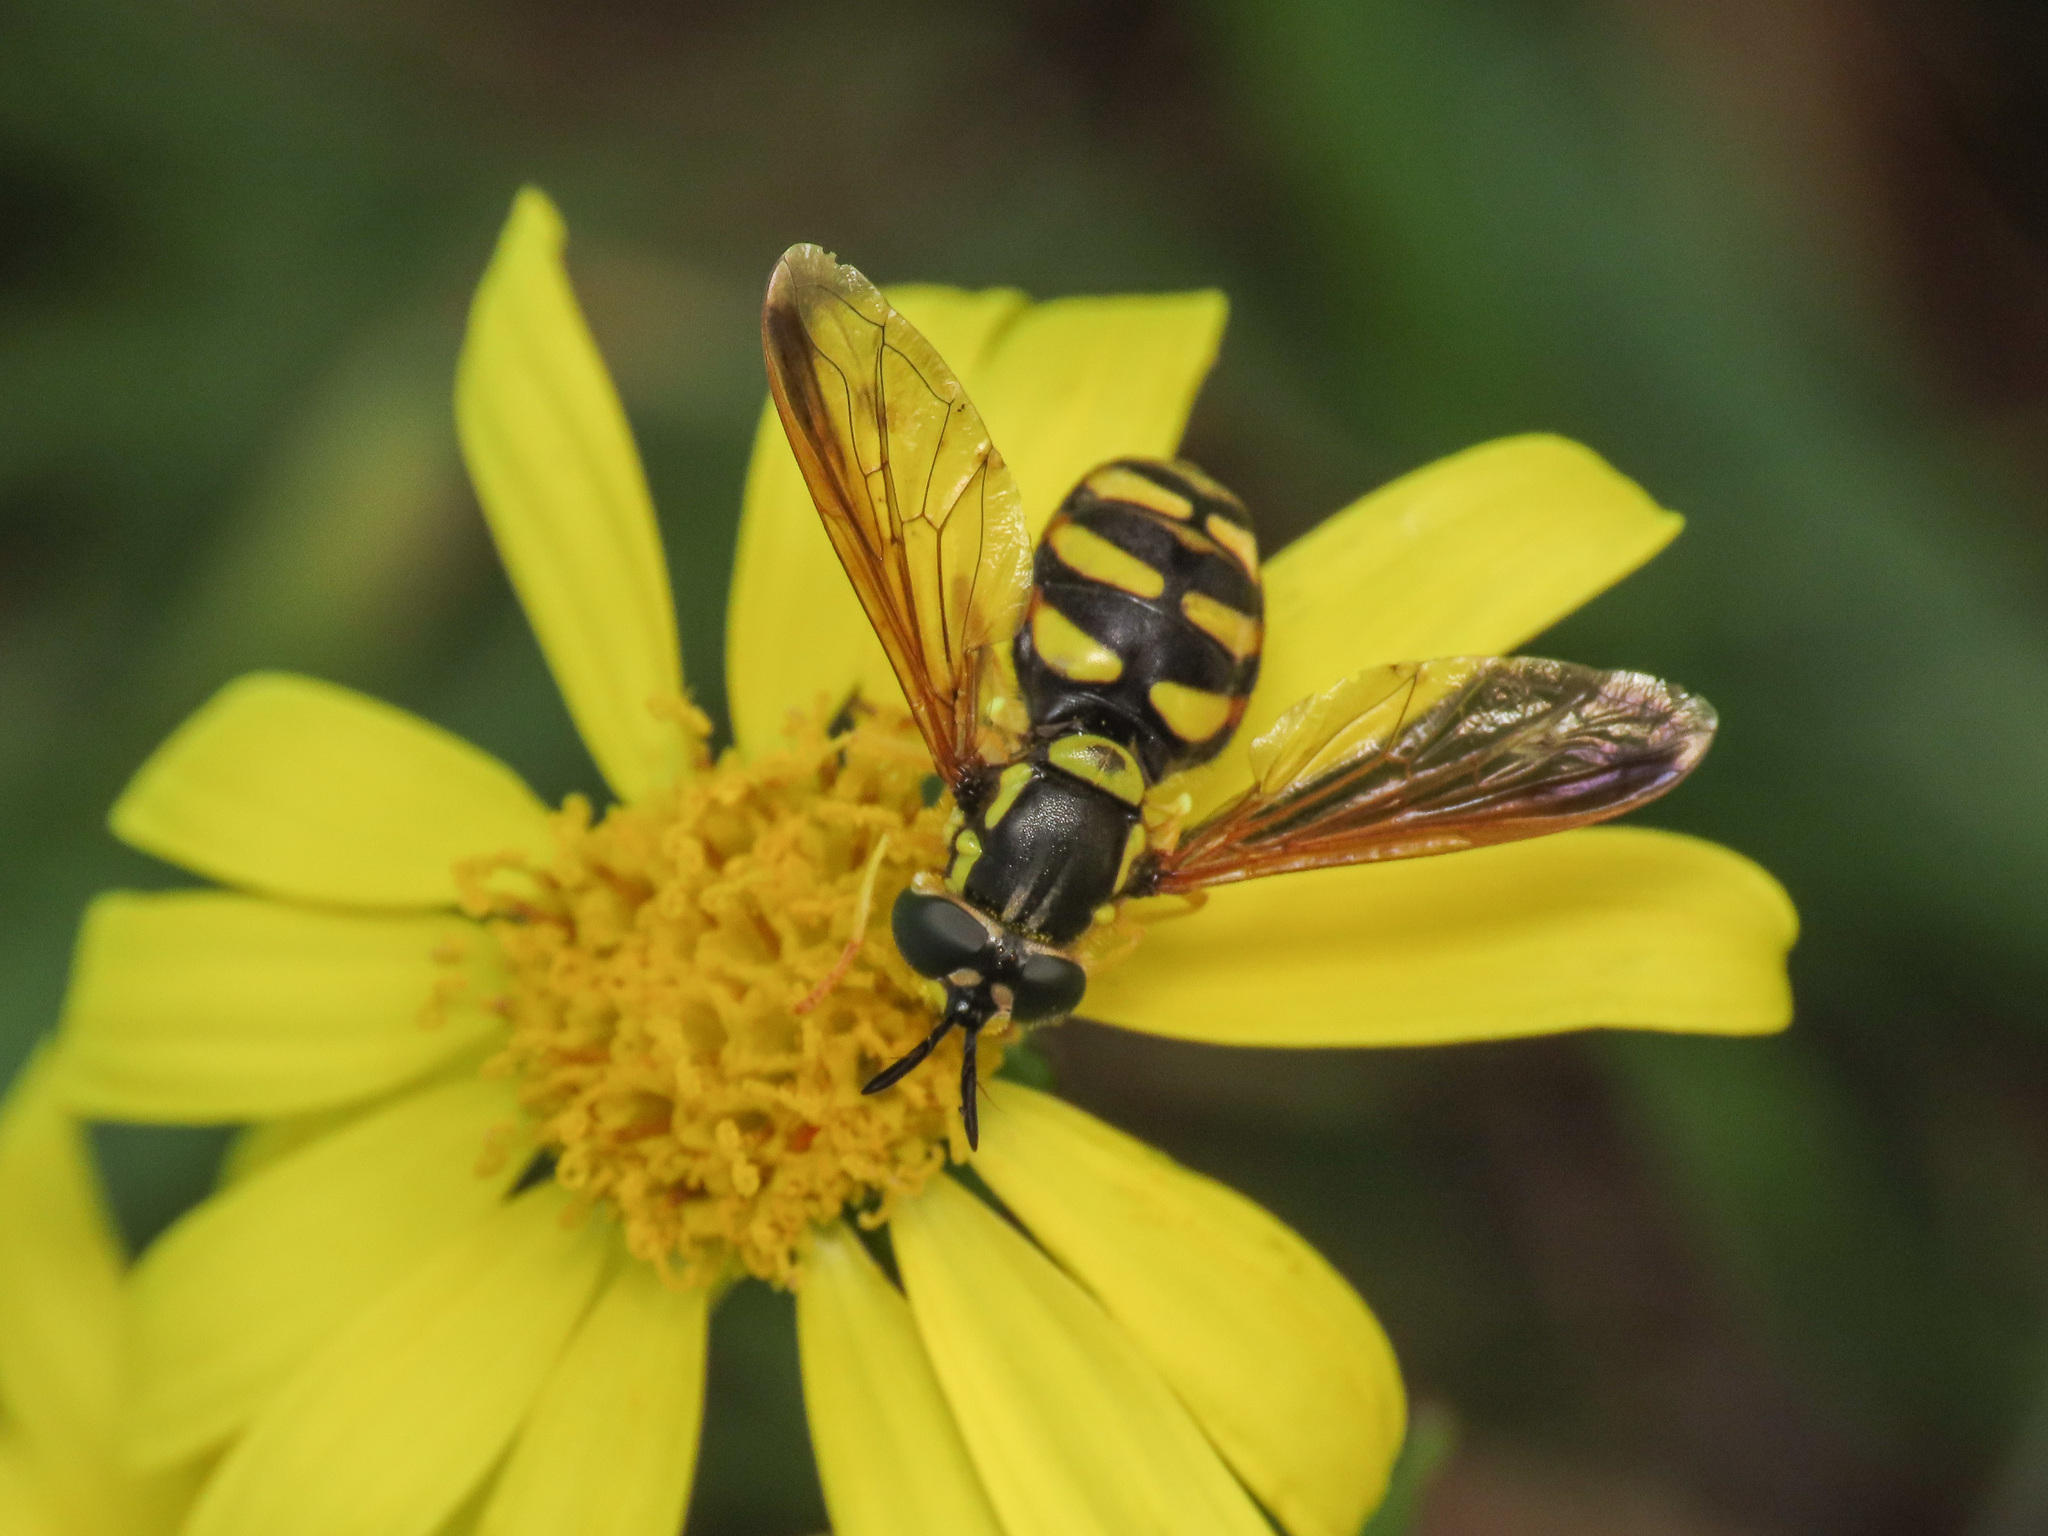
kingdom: Animalia
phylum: Arthropoda
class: Insecta
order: Diptera
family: Syrphidae
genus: Chrysotoxum
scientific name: Chrysotoxum intermedium
